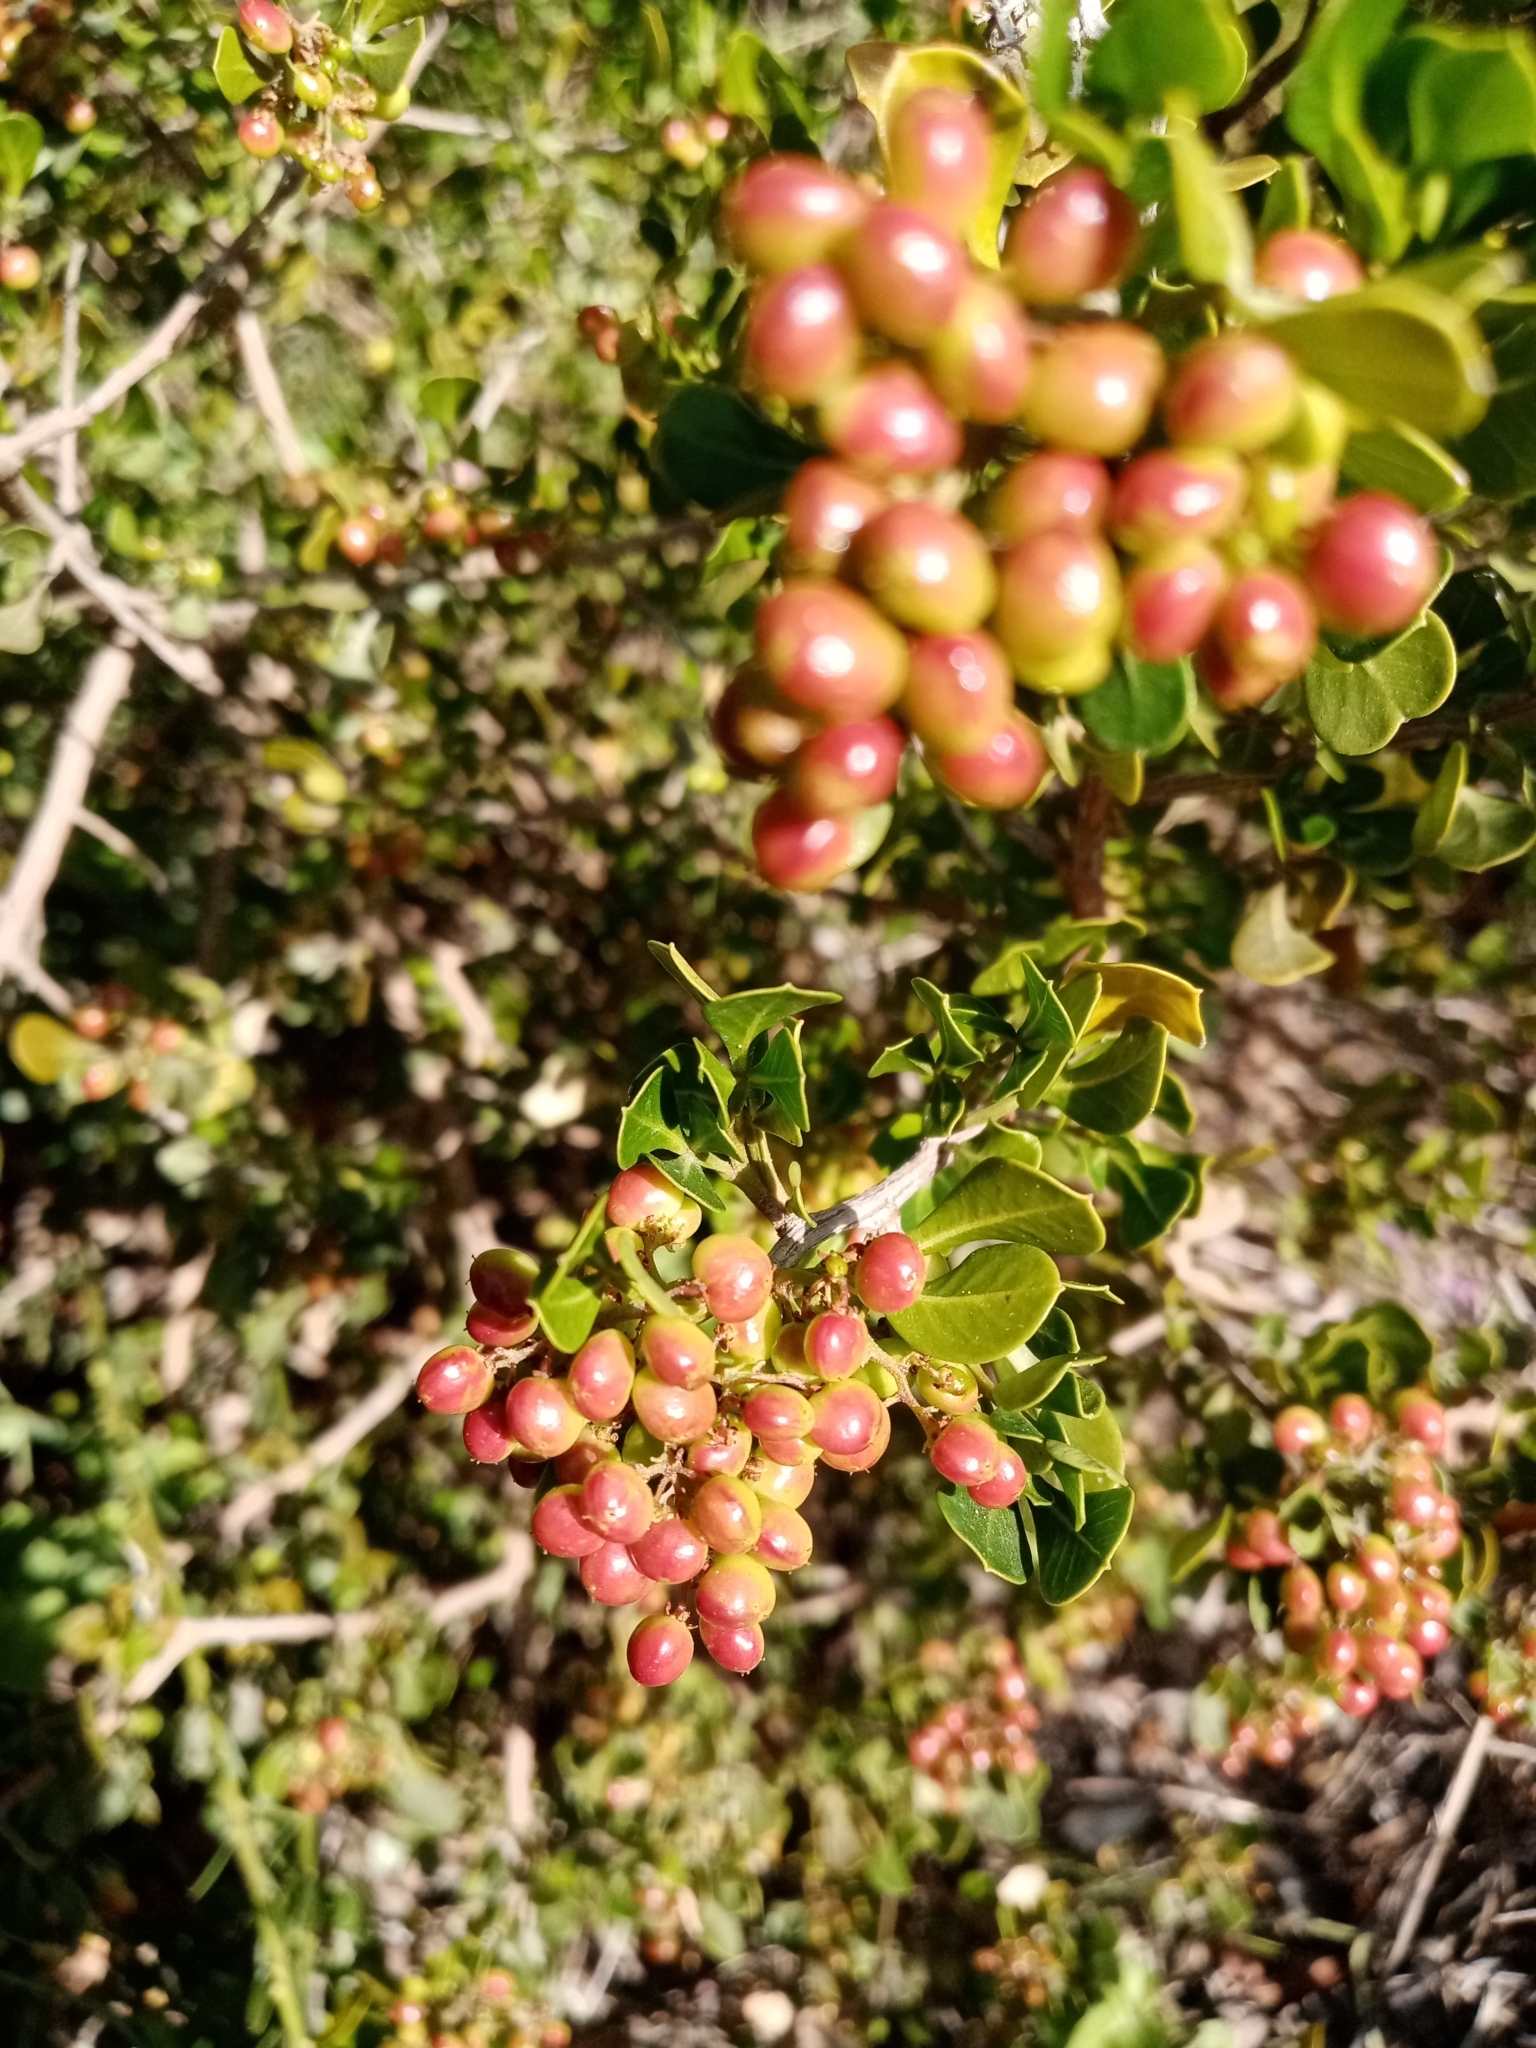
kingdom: Plantae
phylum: Tracheophyta
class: Magnoliopsida
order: Sapindales
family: Anacardiaceae
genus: Searsia
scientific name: Searsia glauca
